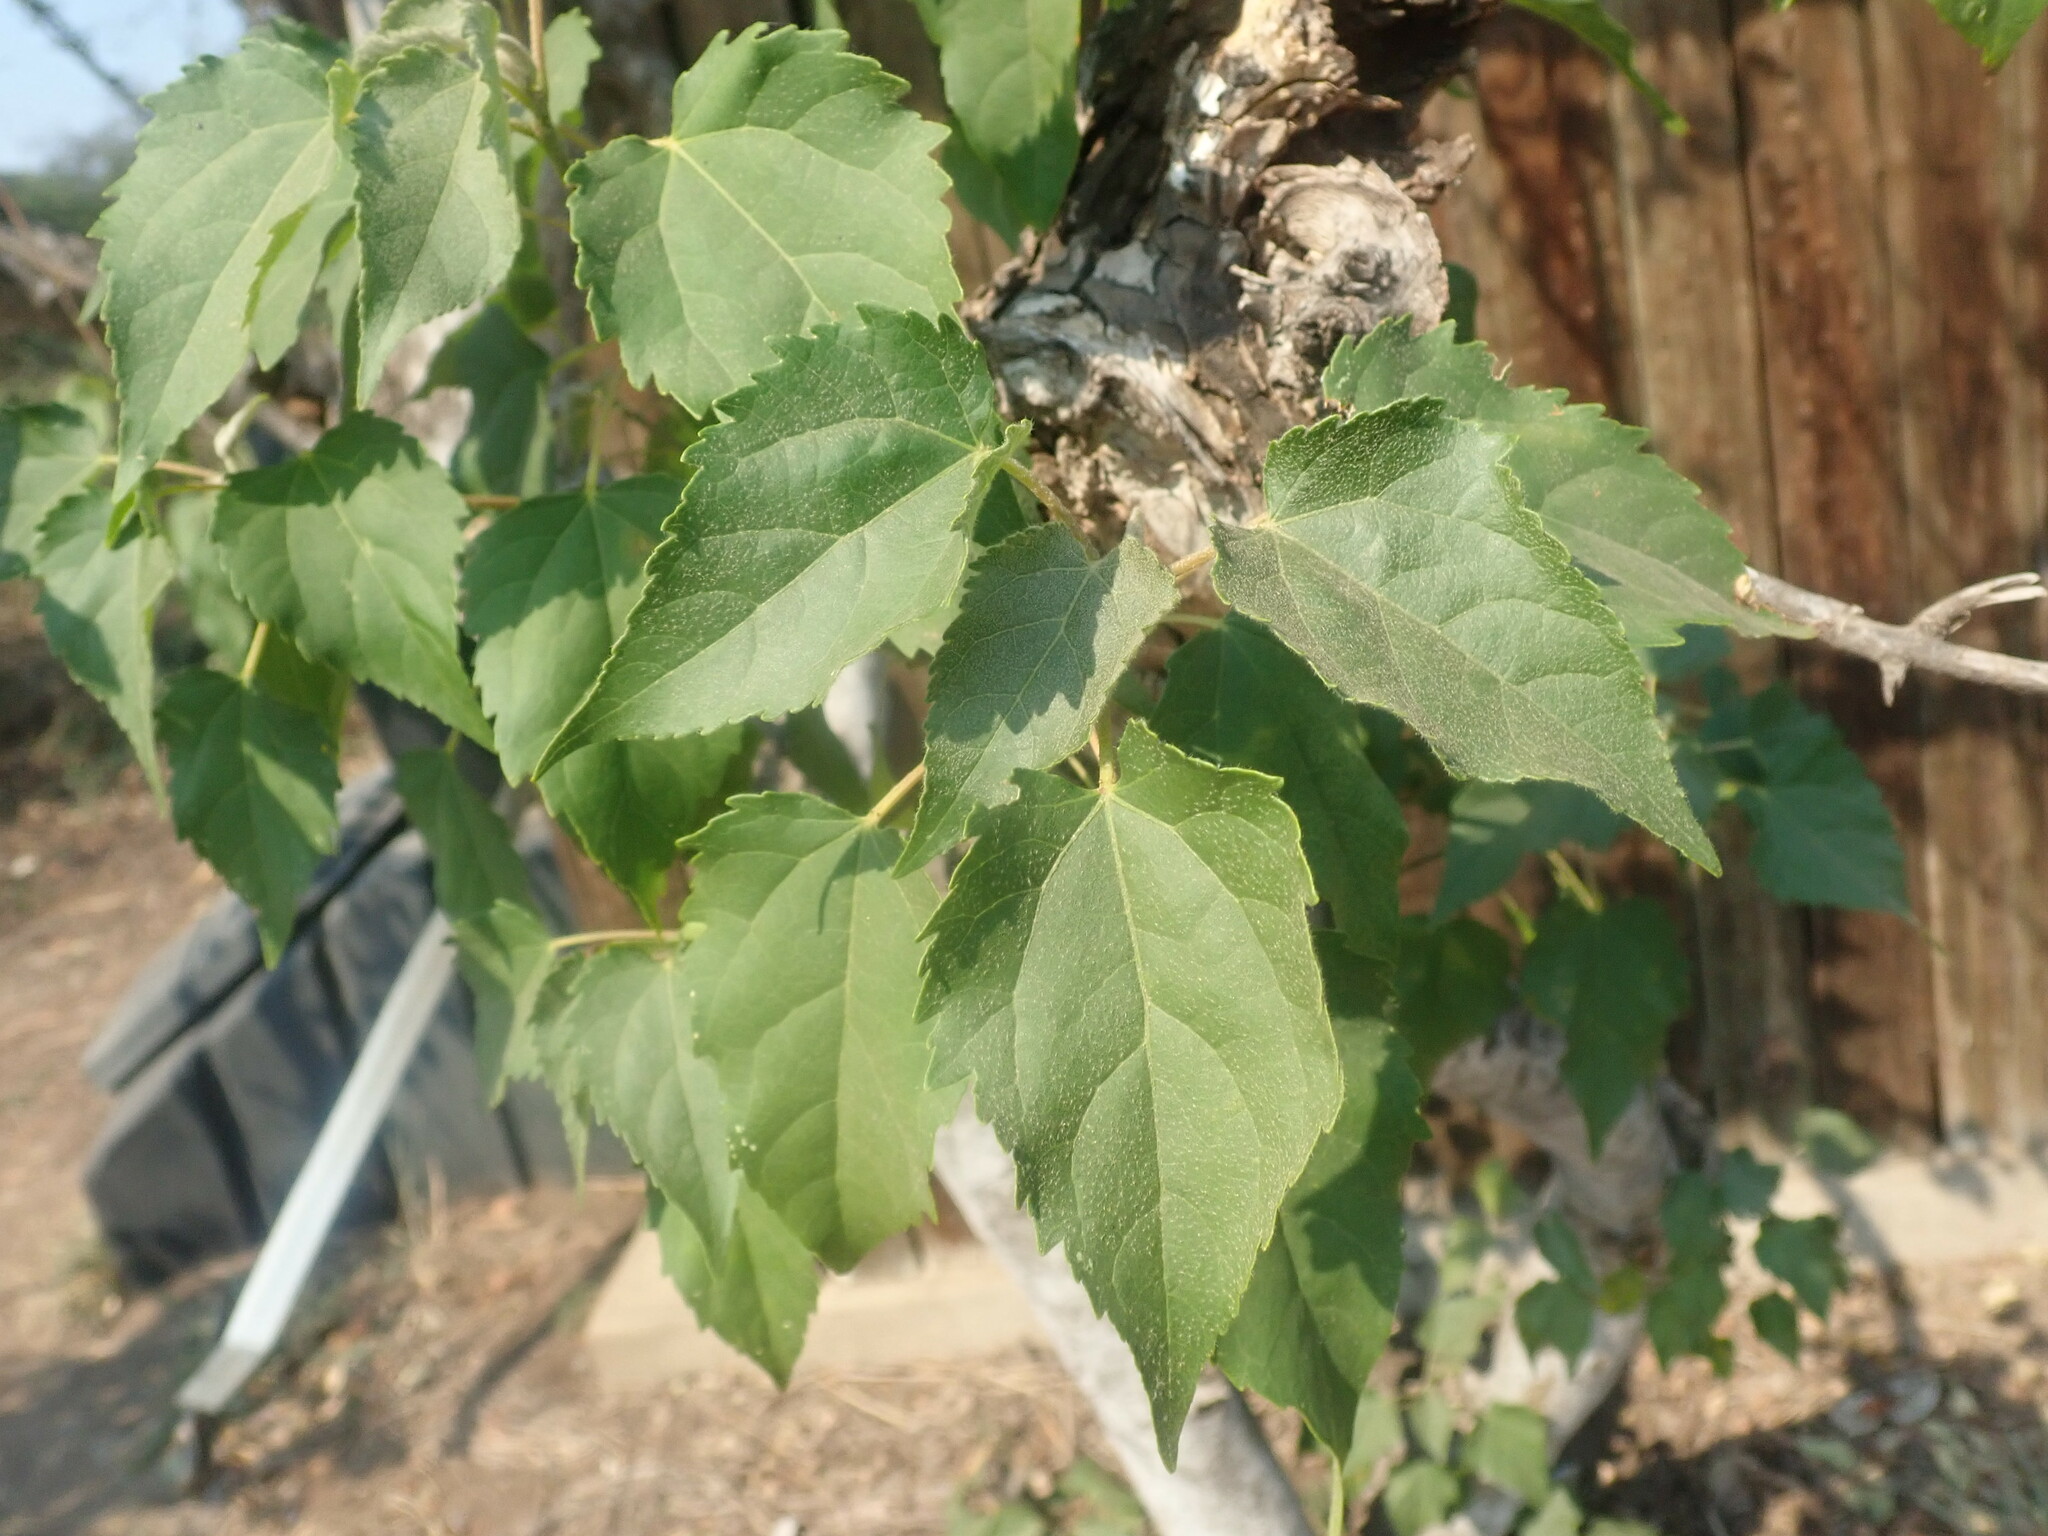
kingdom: Plantae
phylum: Tracheophyta
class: Magnoliopsida
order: Malpighiales
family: Euphorbiaceae
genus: Croton
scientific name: Croton megalobotrys
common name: Large fever berry
